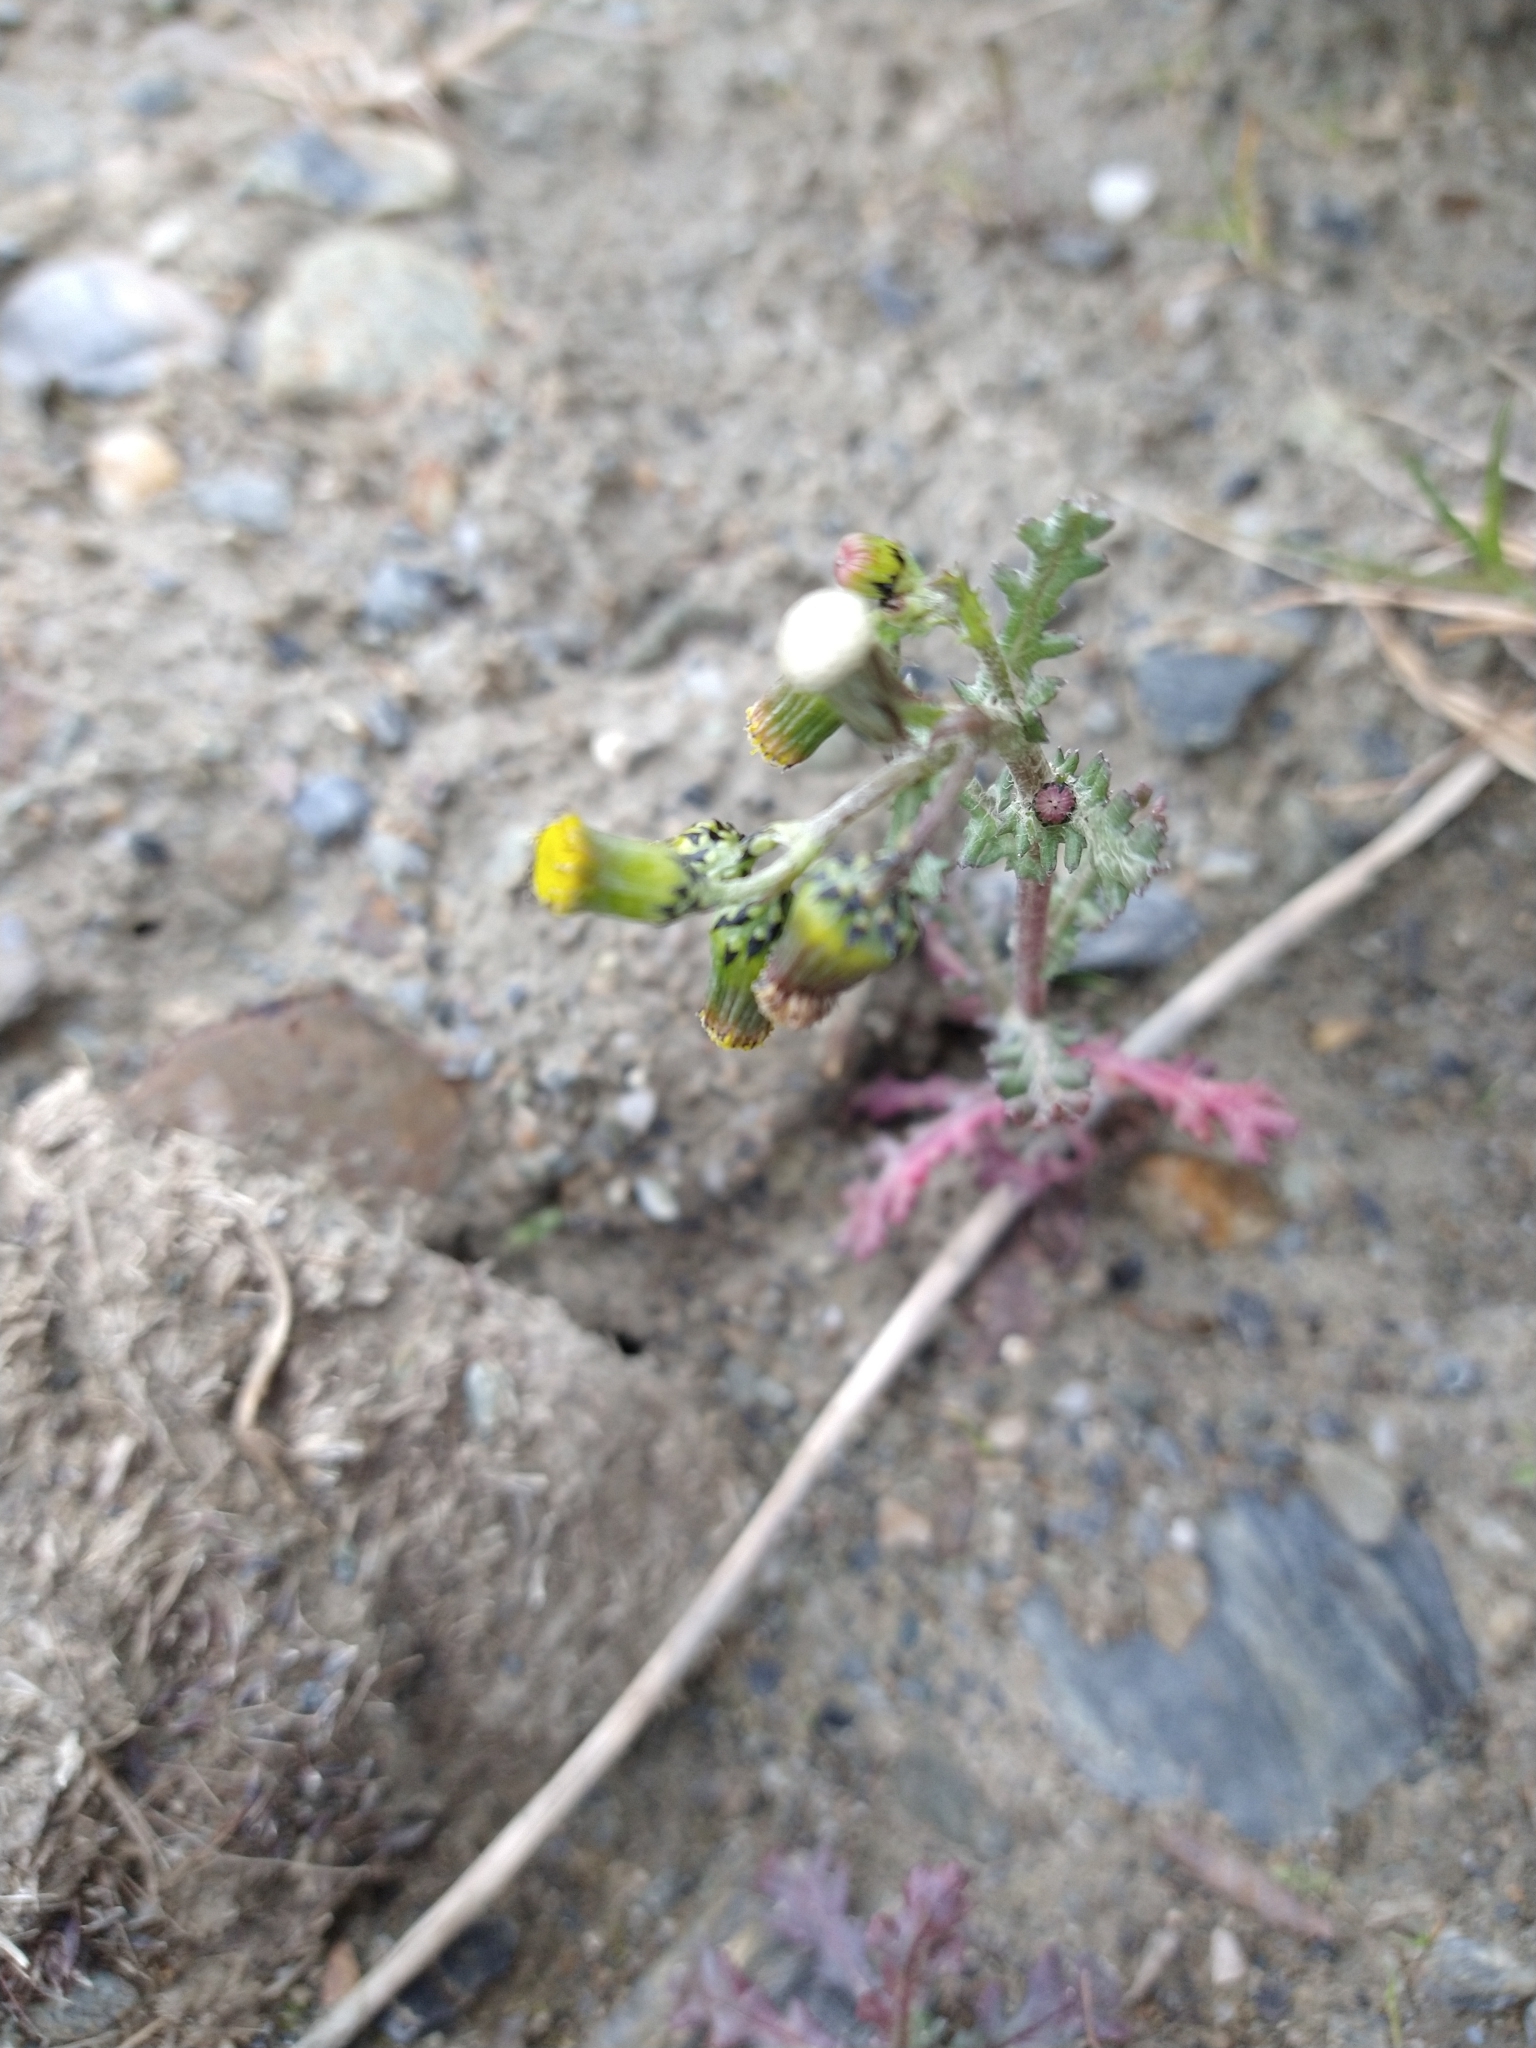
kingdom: Plantae
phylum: Tracheophyta
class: Magnoliopsida
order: Asterales
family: Asteraceae
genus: Senecio
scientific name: Senecio vulgaris
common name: Old-man-in-the-spring
